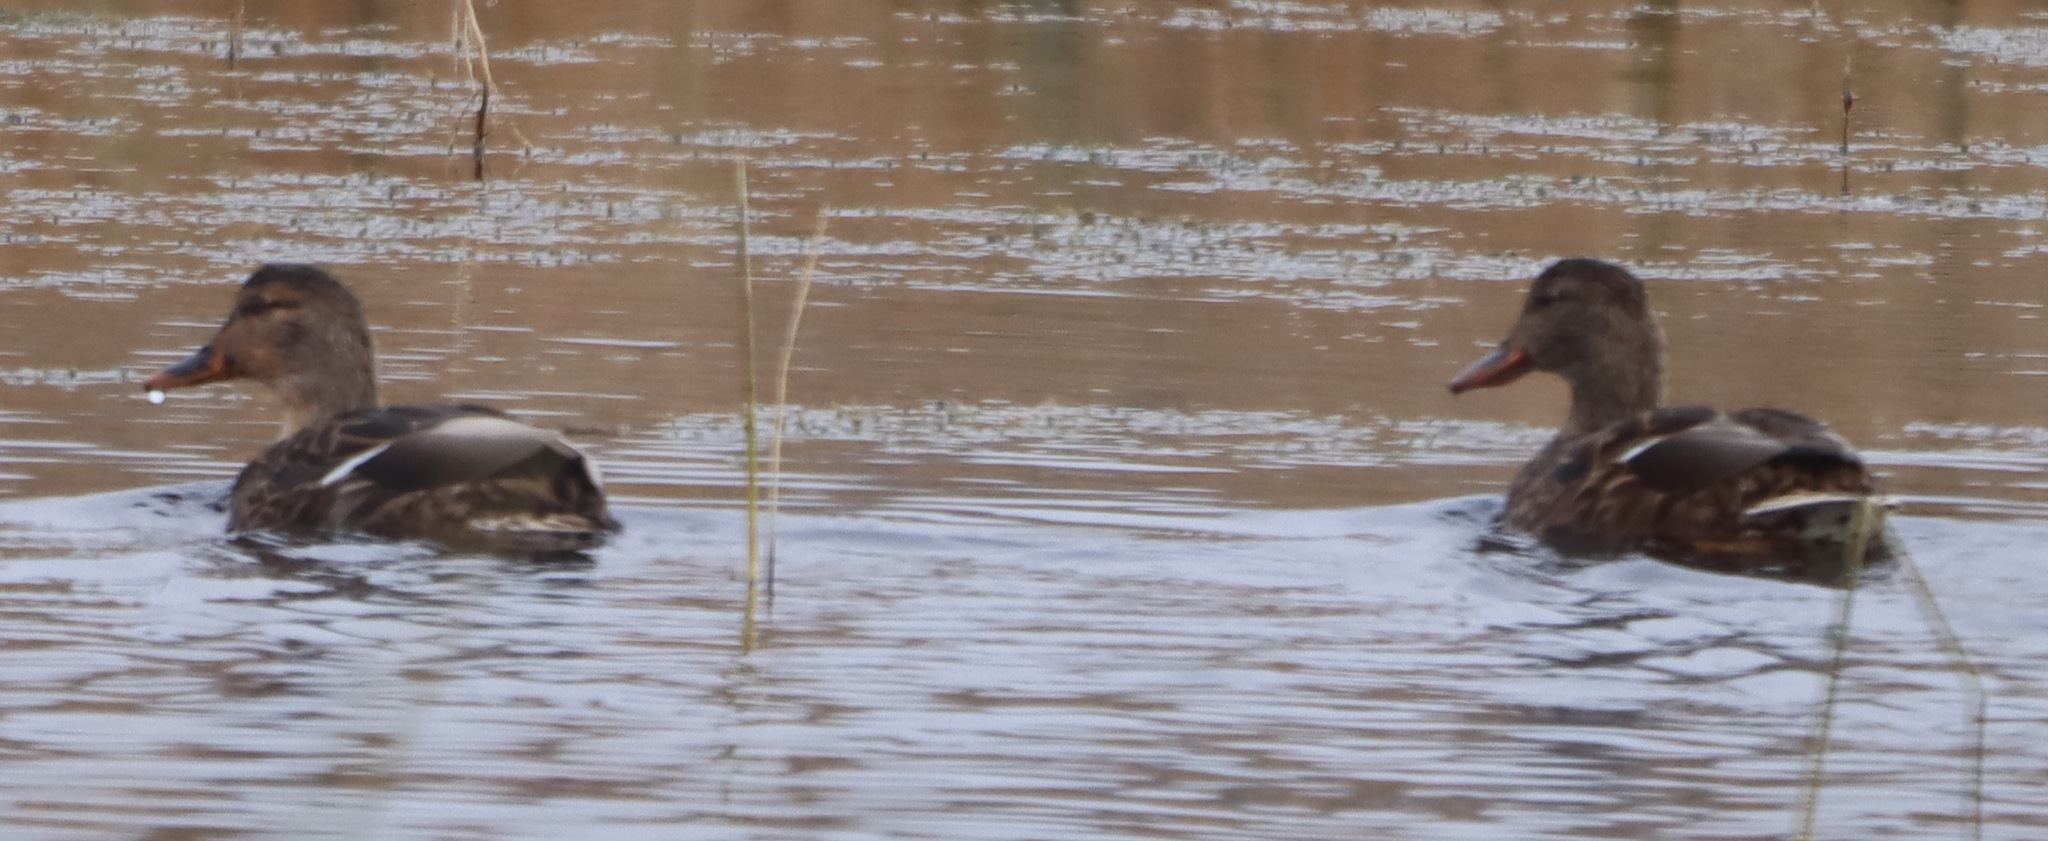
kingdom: Animalia
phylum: Chordata
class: Aves
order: Anseriformes
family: Anatidae
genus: Anas
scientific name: Anas platyrhynchos
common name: Mallard
